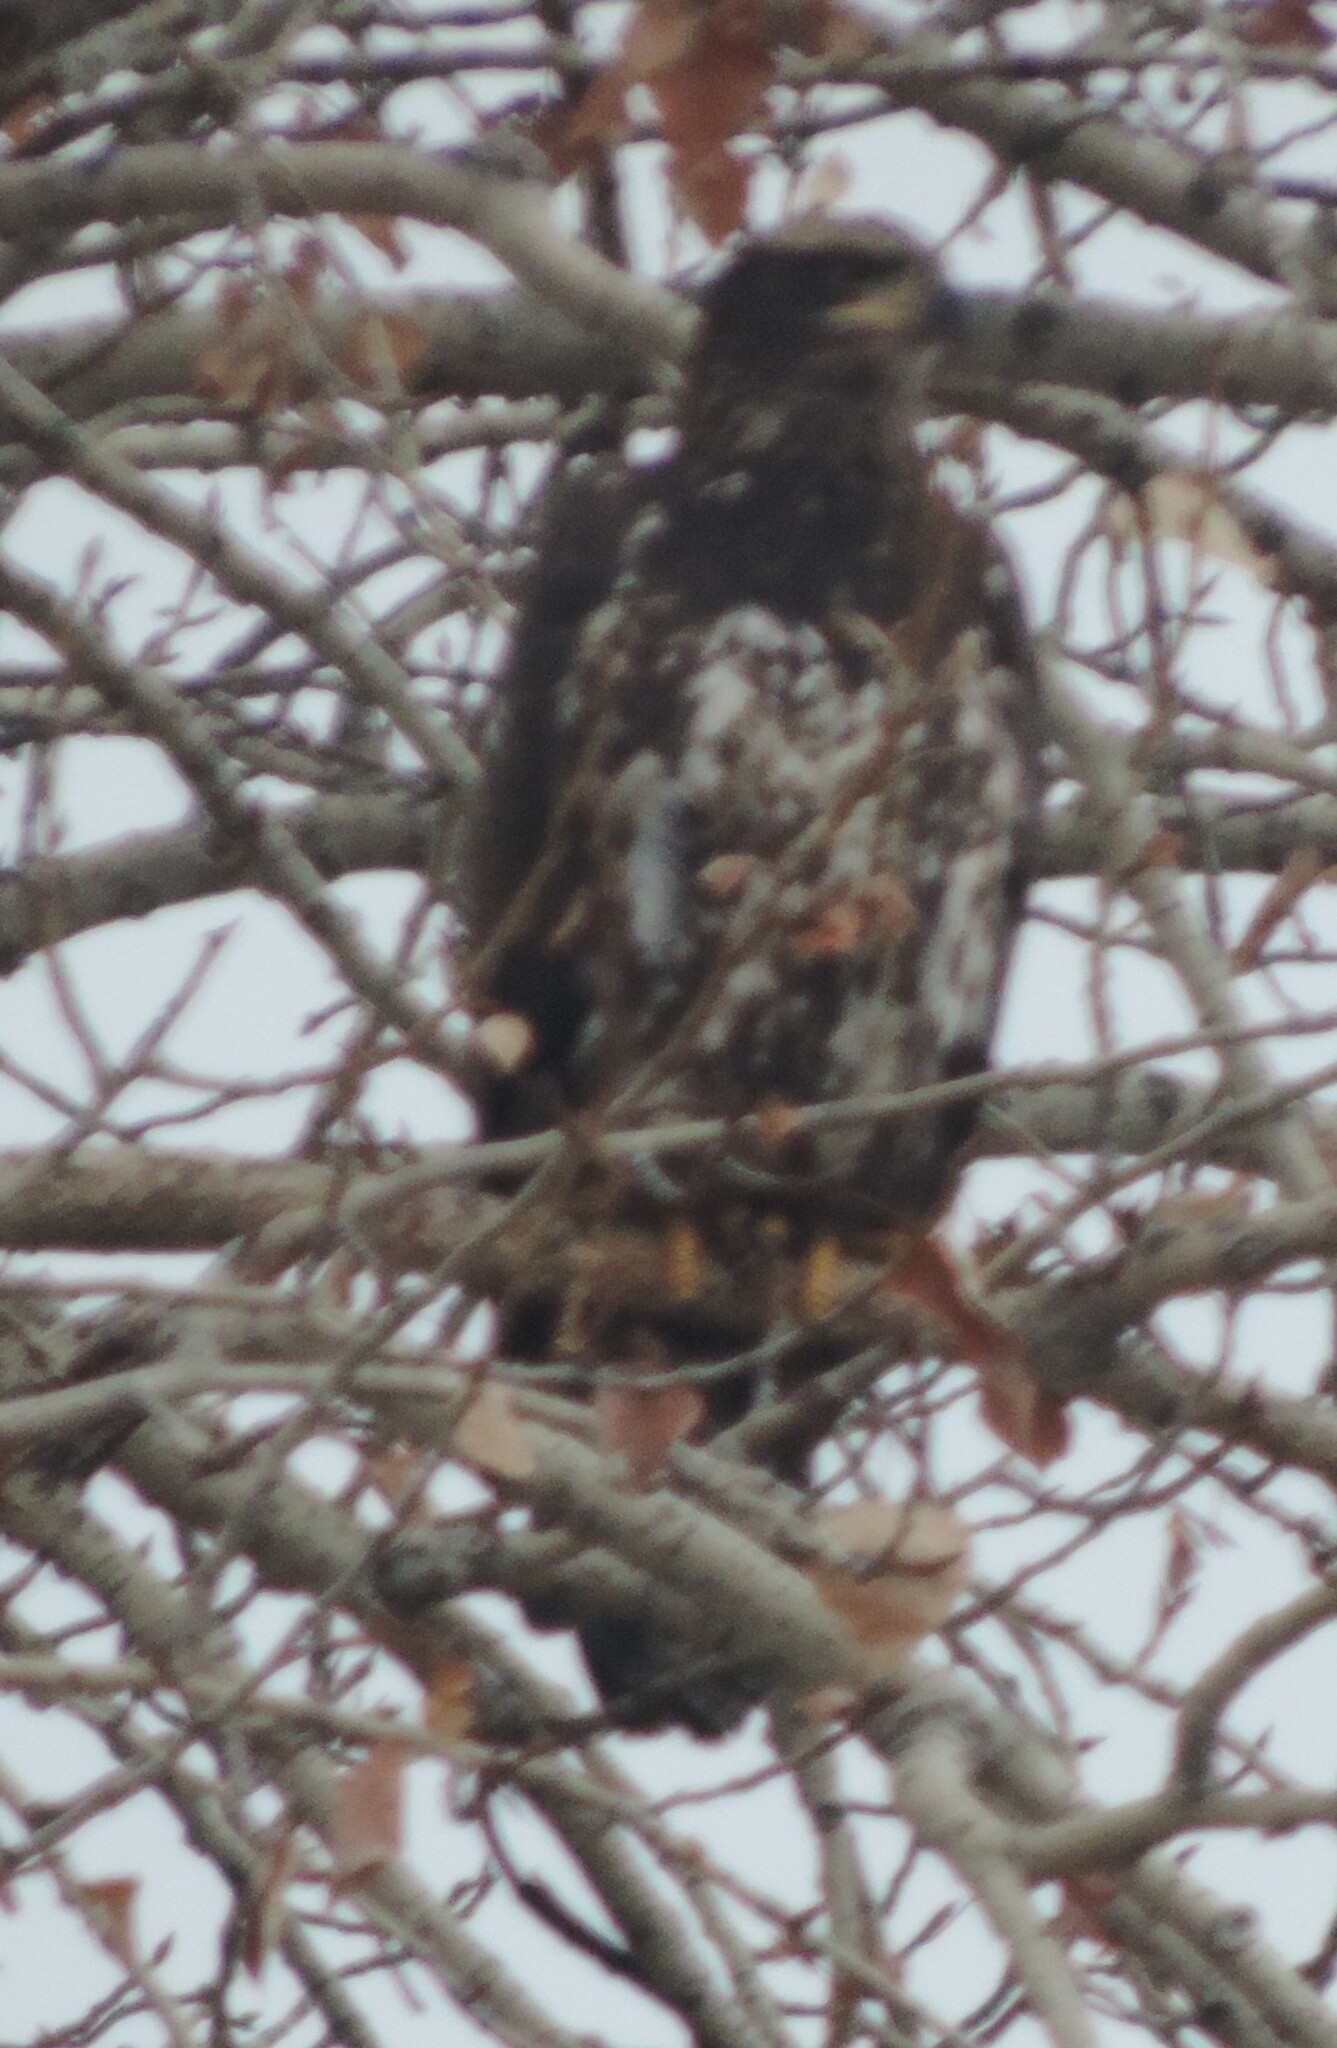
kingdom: Animalia
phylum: Chordata
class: Aves
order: Accipitriformes
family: Accipitridae
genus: Haliaeetus
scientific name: Haliaeetus leucocephalus
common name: Bald eagle
